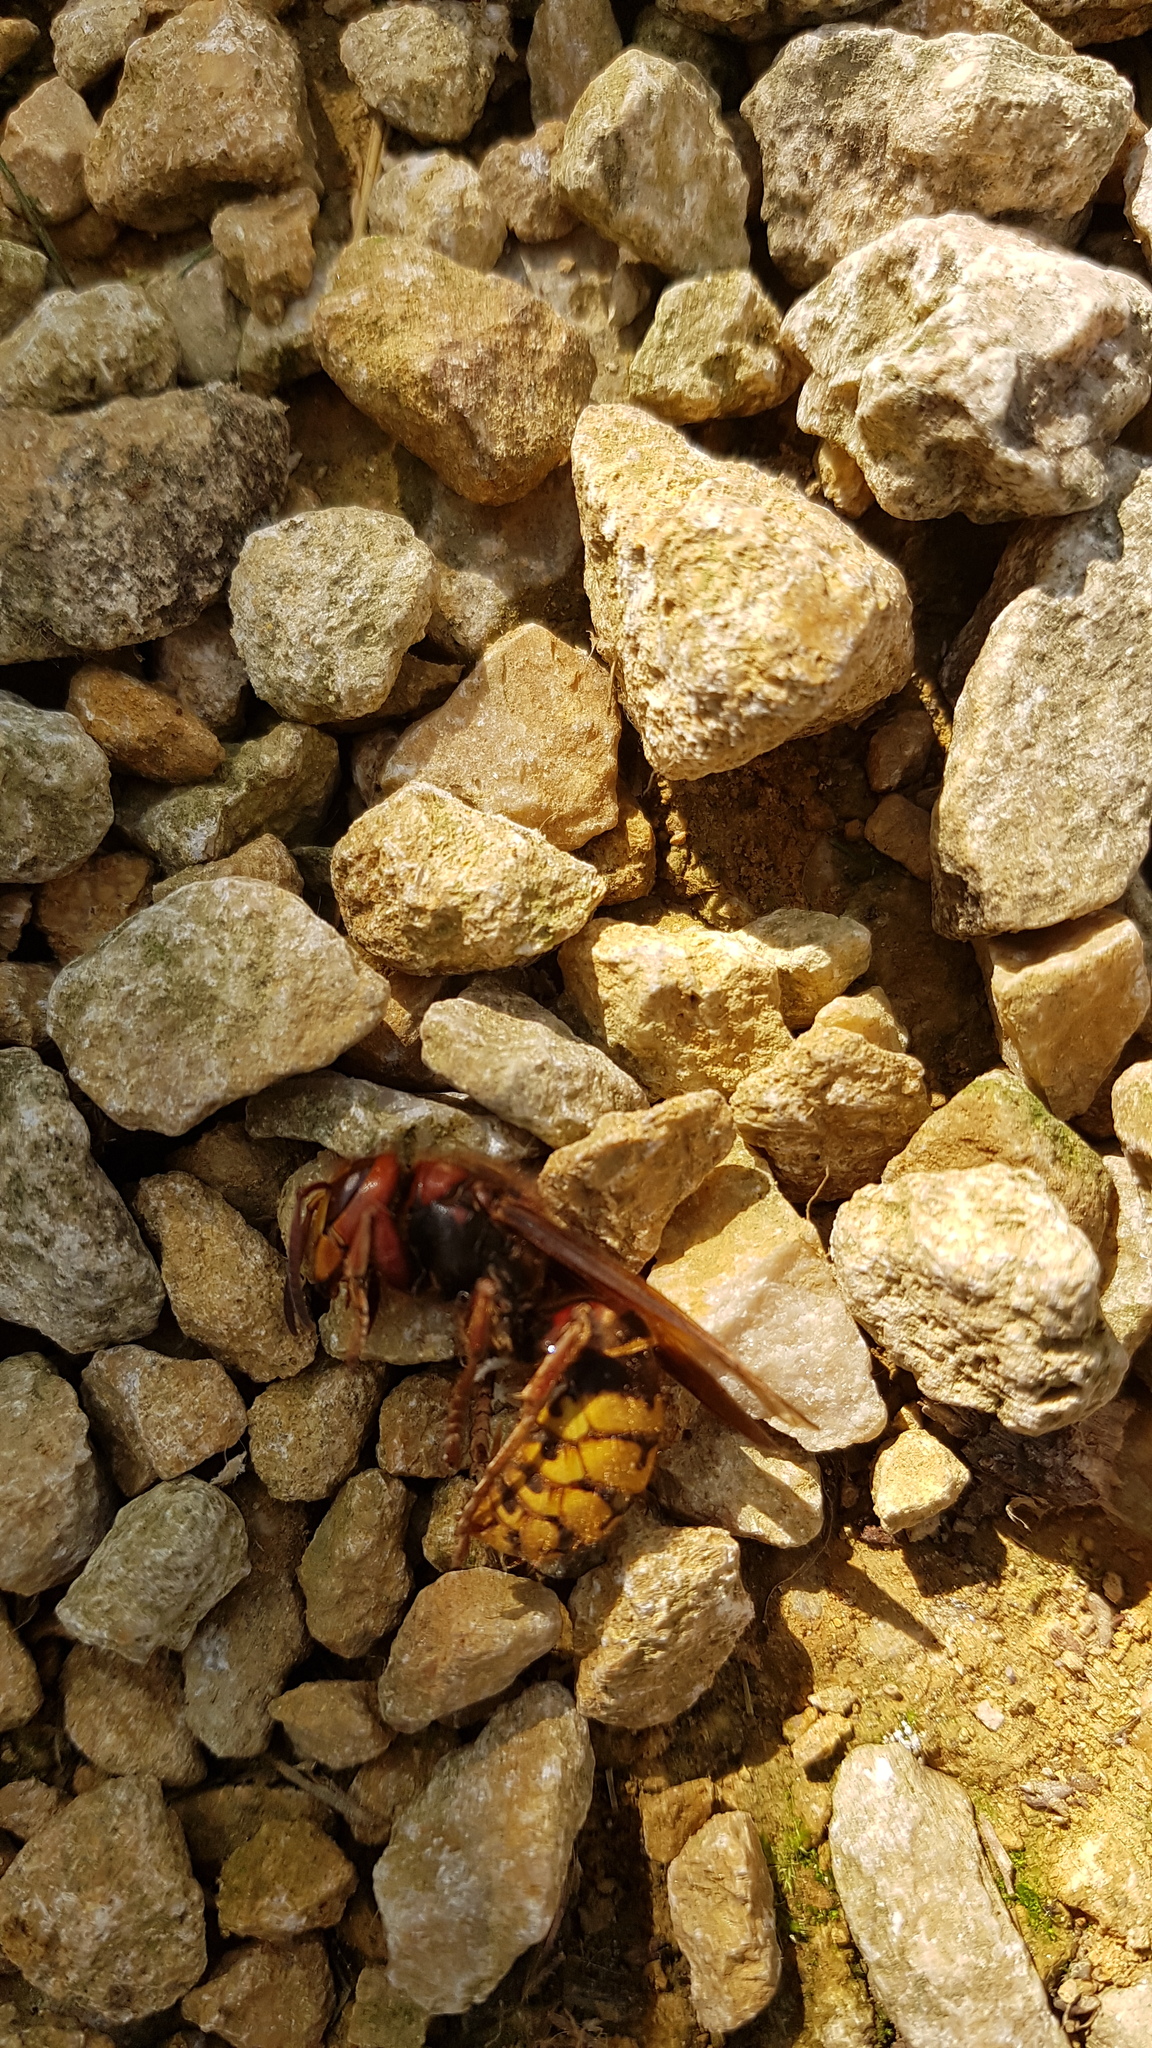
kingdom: Animalia
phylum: Arthropoda
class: Insecta
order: Hymenoptera
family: Vespidae
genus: Vespa
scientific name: Vespa crabro
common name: Hornet
